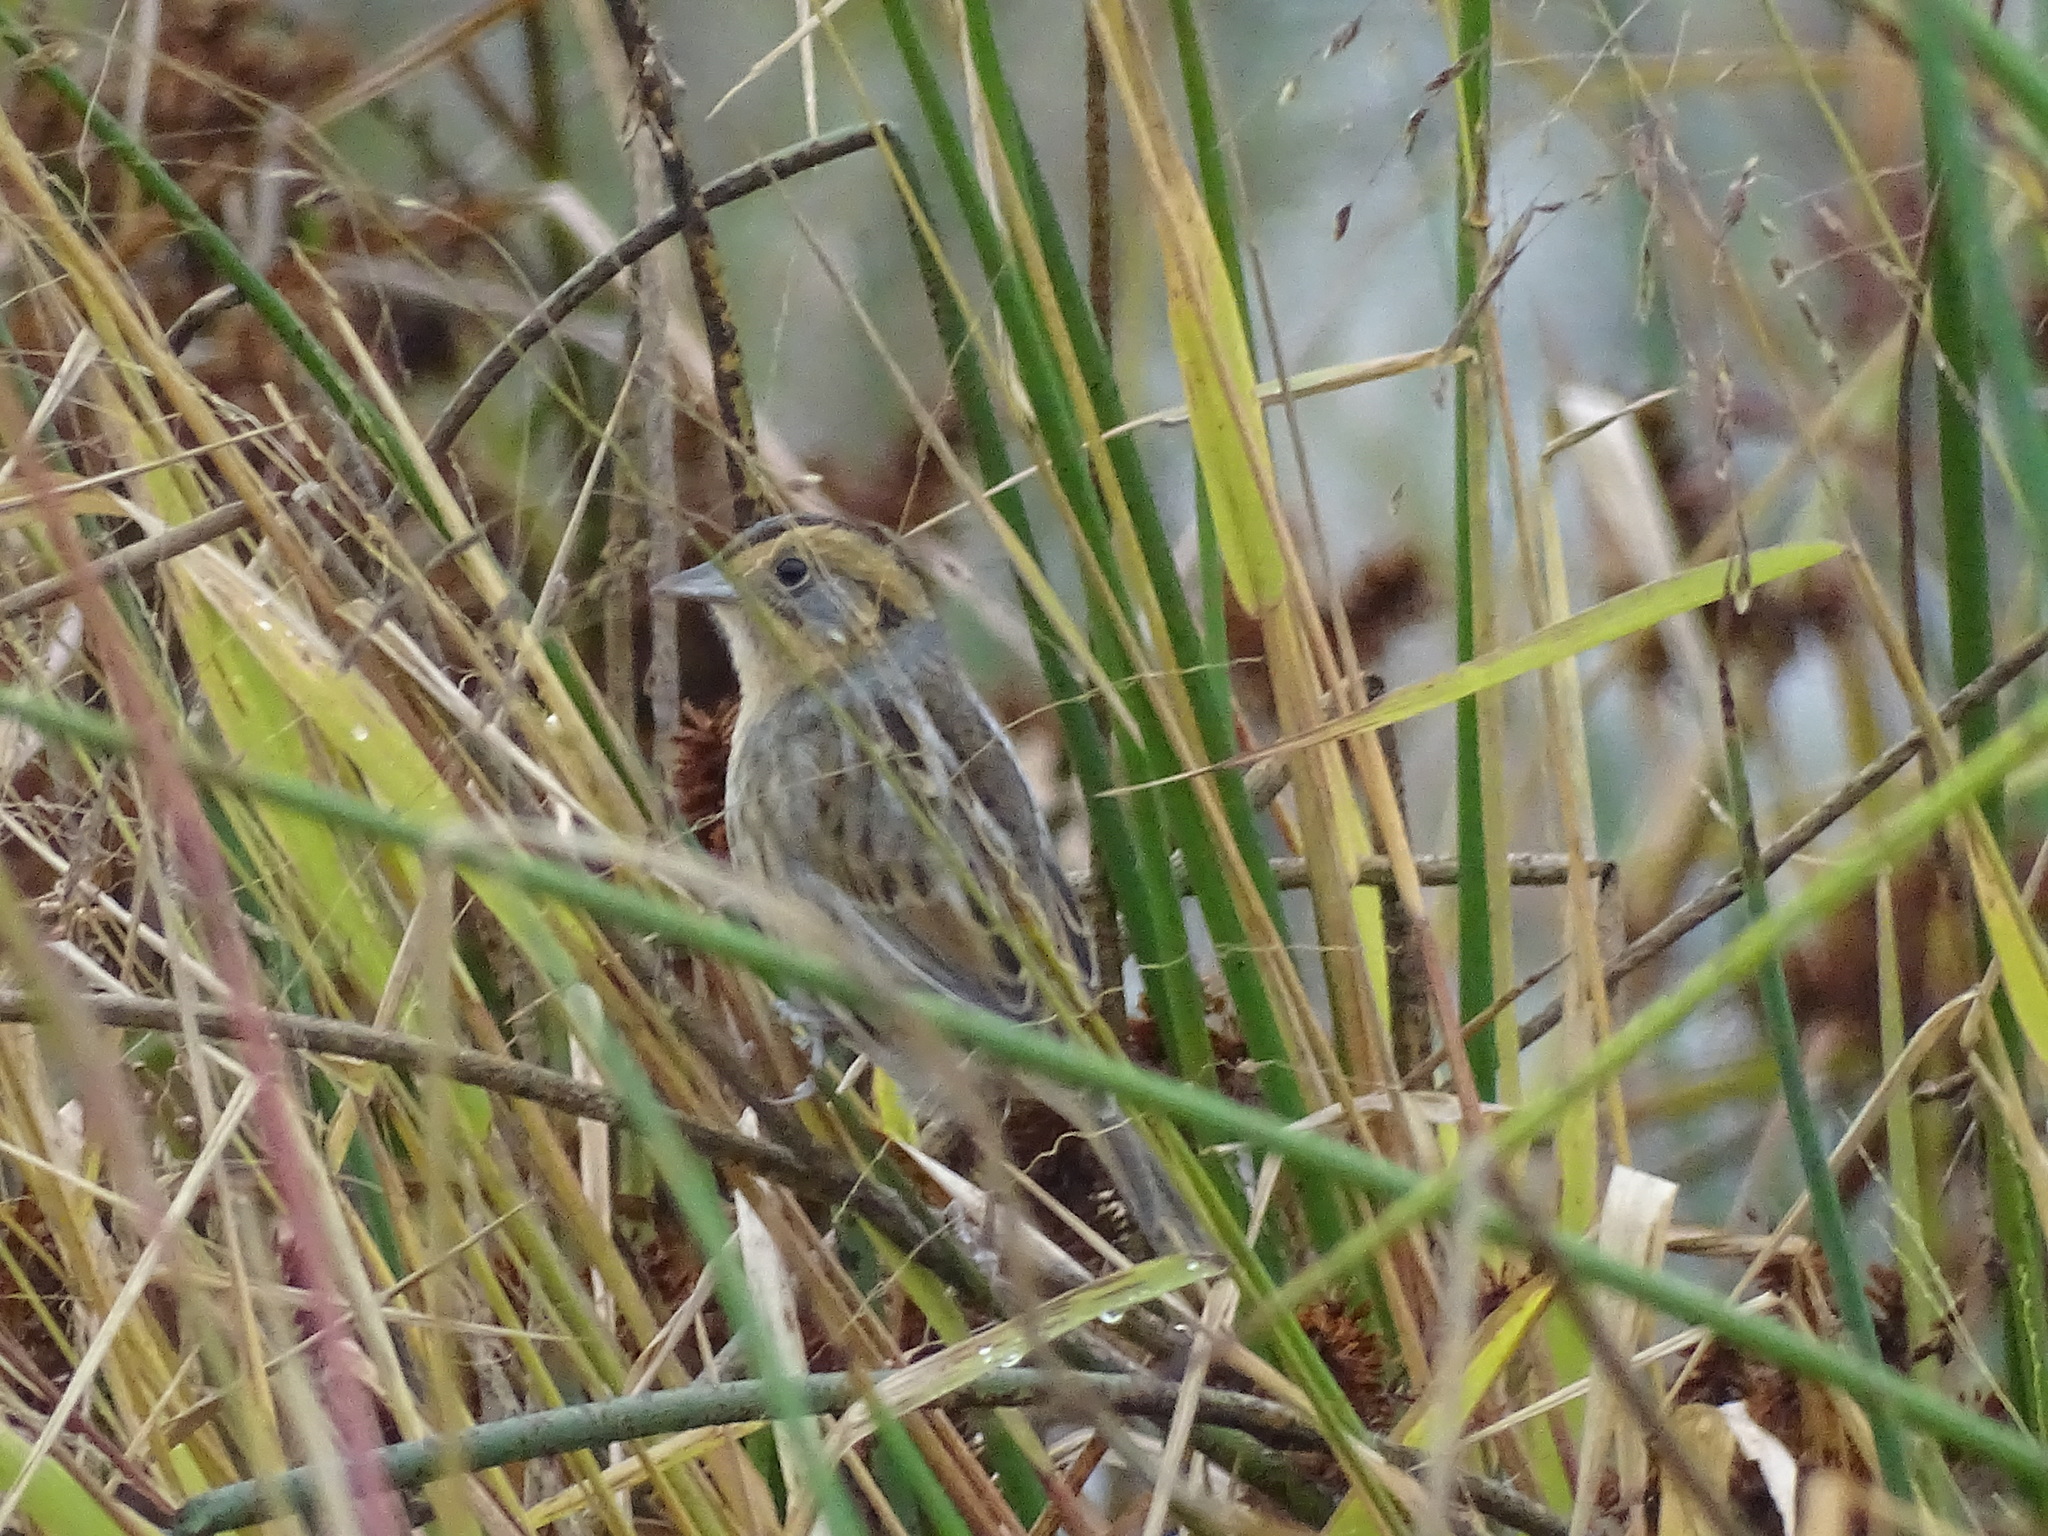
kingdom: Animalia
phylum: Chordata
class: Aves
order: Passeriformes
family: Passerellidae
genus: Ammospiza
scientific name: Ammospiza nelsoni
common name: Nelson's sparrow
